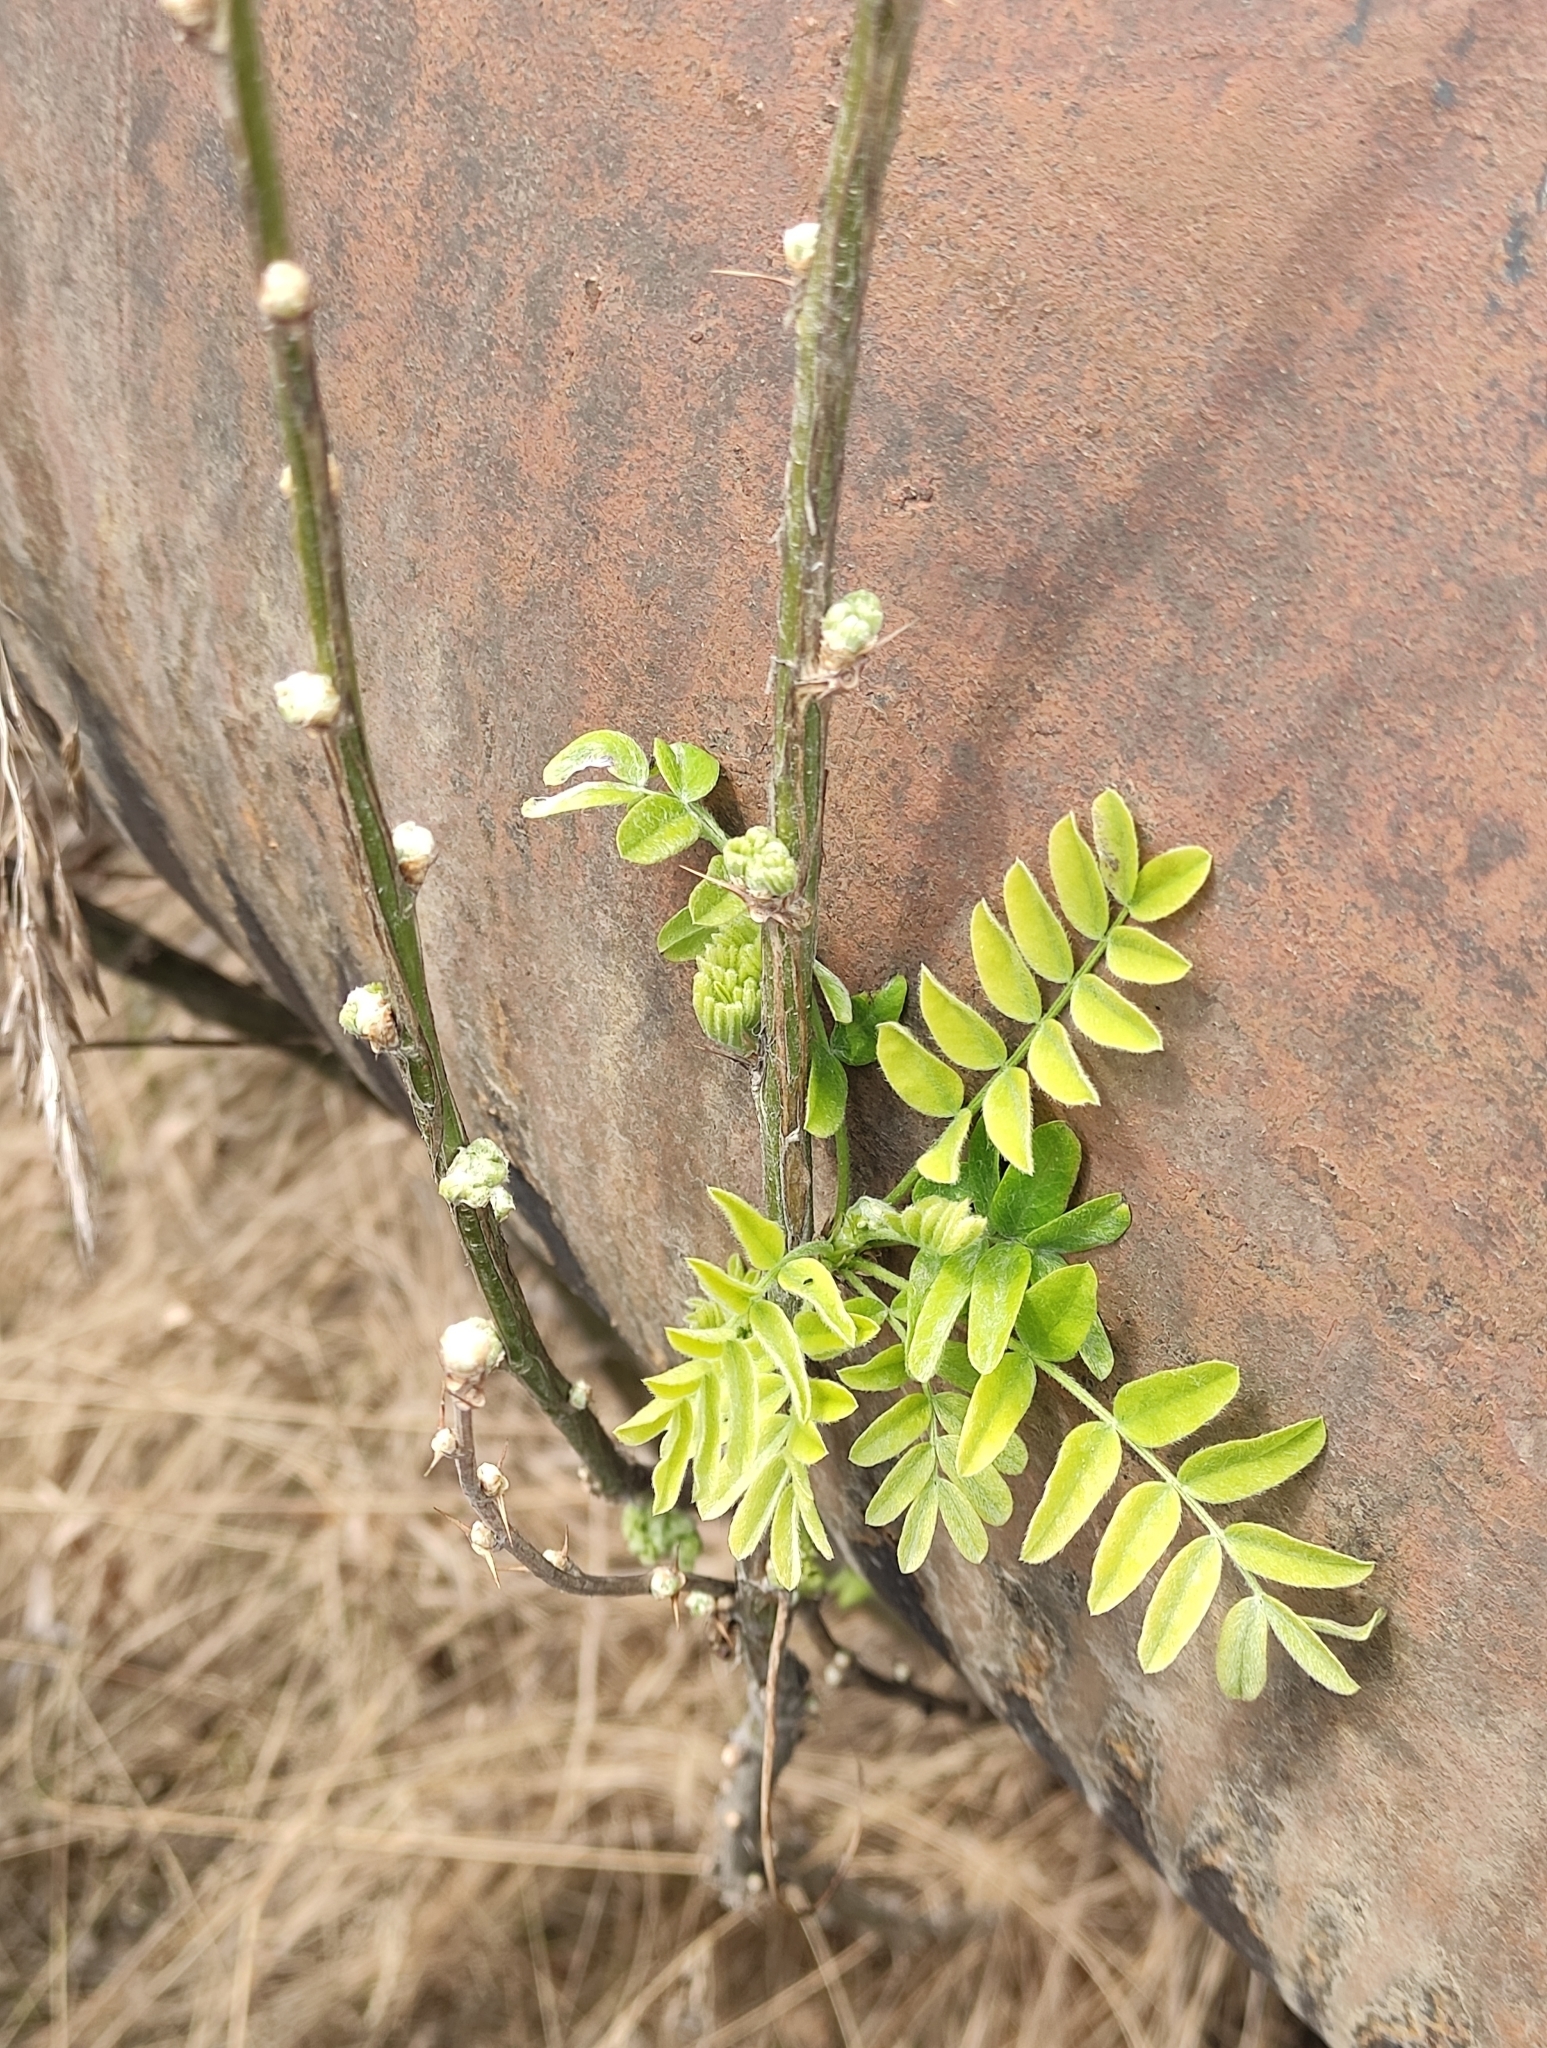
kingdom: Plantae
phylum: Tracheophyta
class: Magnoliopsida
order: Fabales
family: Fabaceae
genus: Caragana
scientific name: Caragana arborescens
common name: Siberian peashrub
